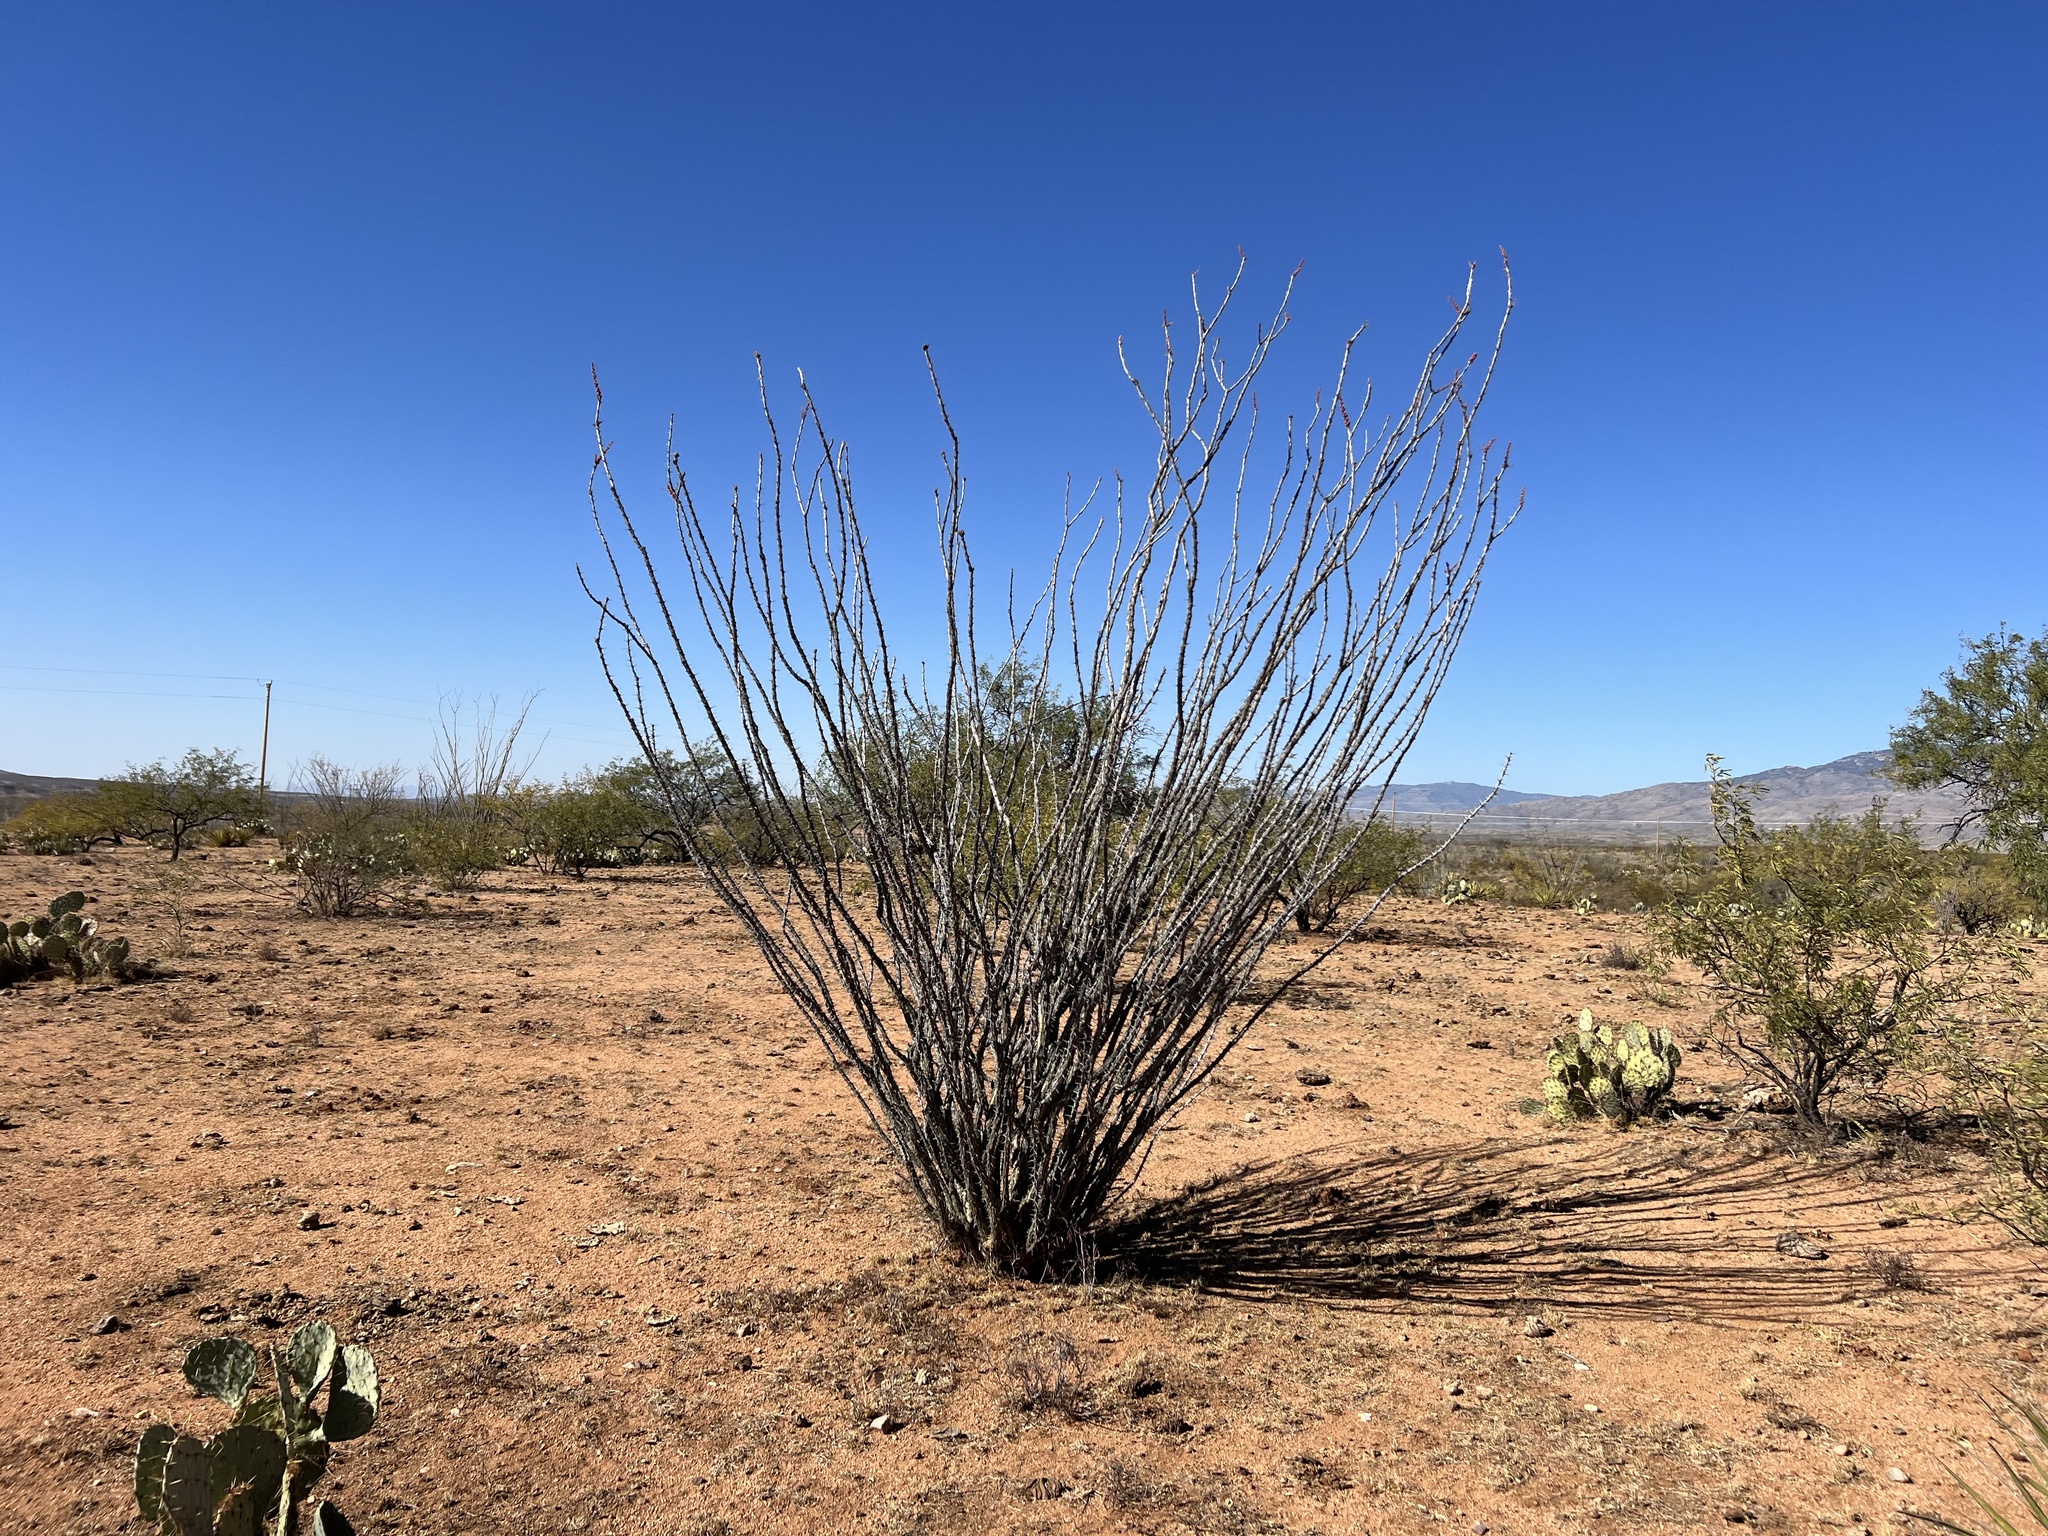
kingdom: Plantae
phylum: Tracheophyta
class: Magnoliopsida
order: Ericales
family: Fouquieriaceae
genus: Fouquieria
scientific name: Fouquieria splendens
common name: Vine-cactus
